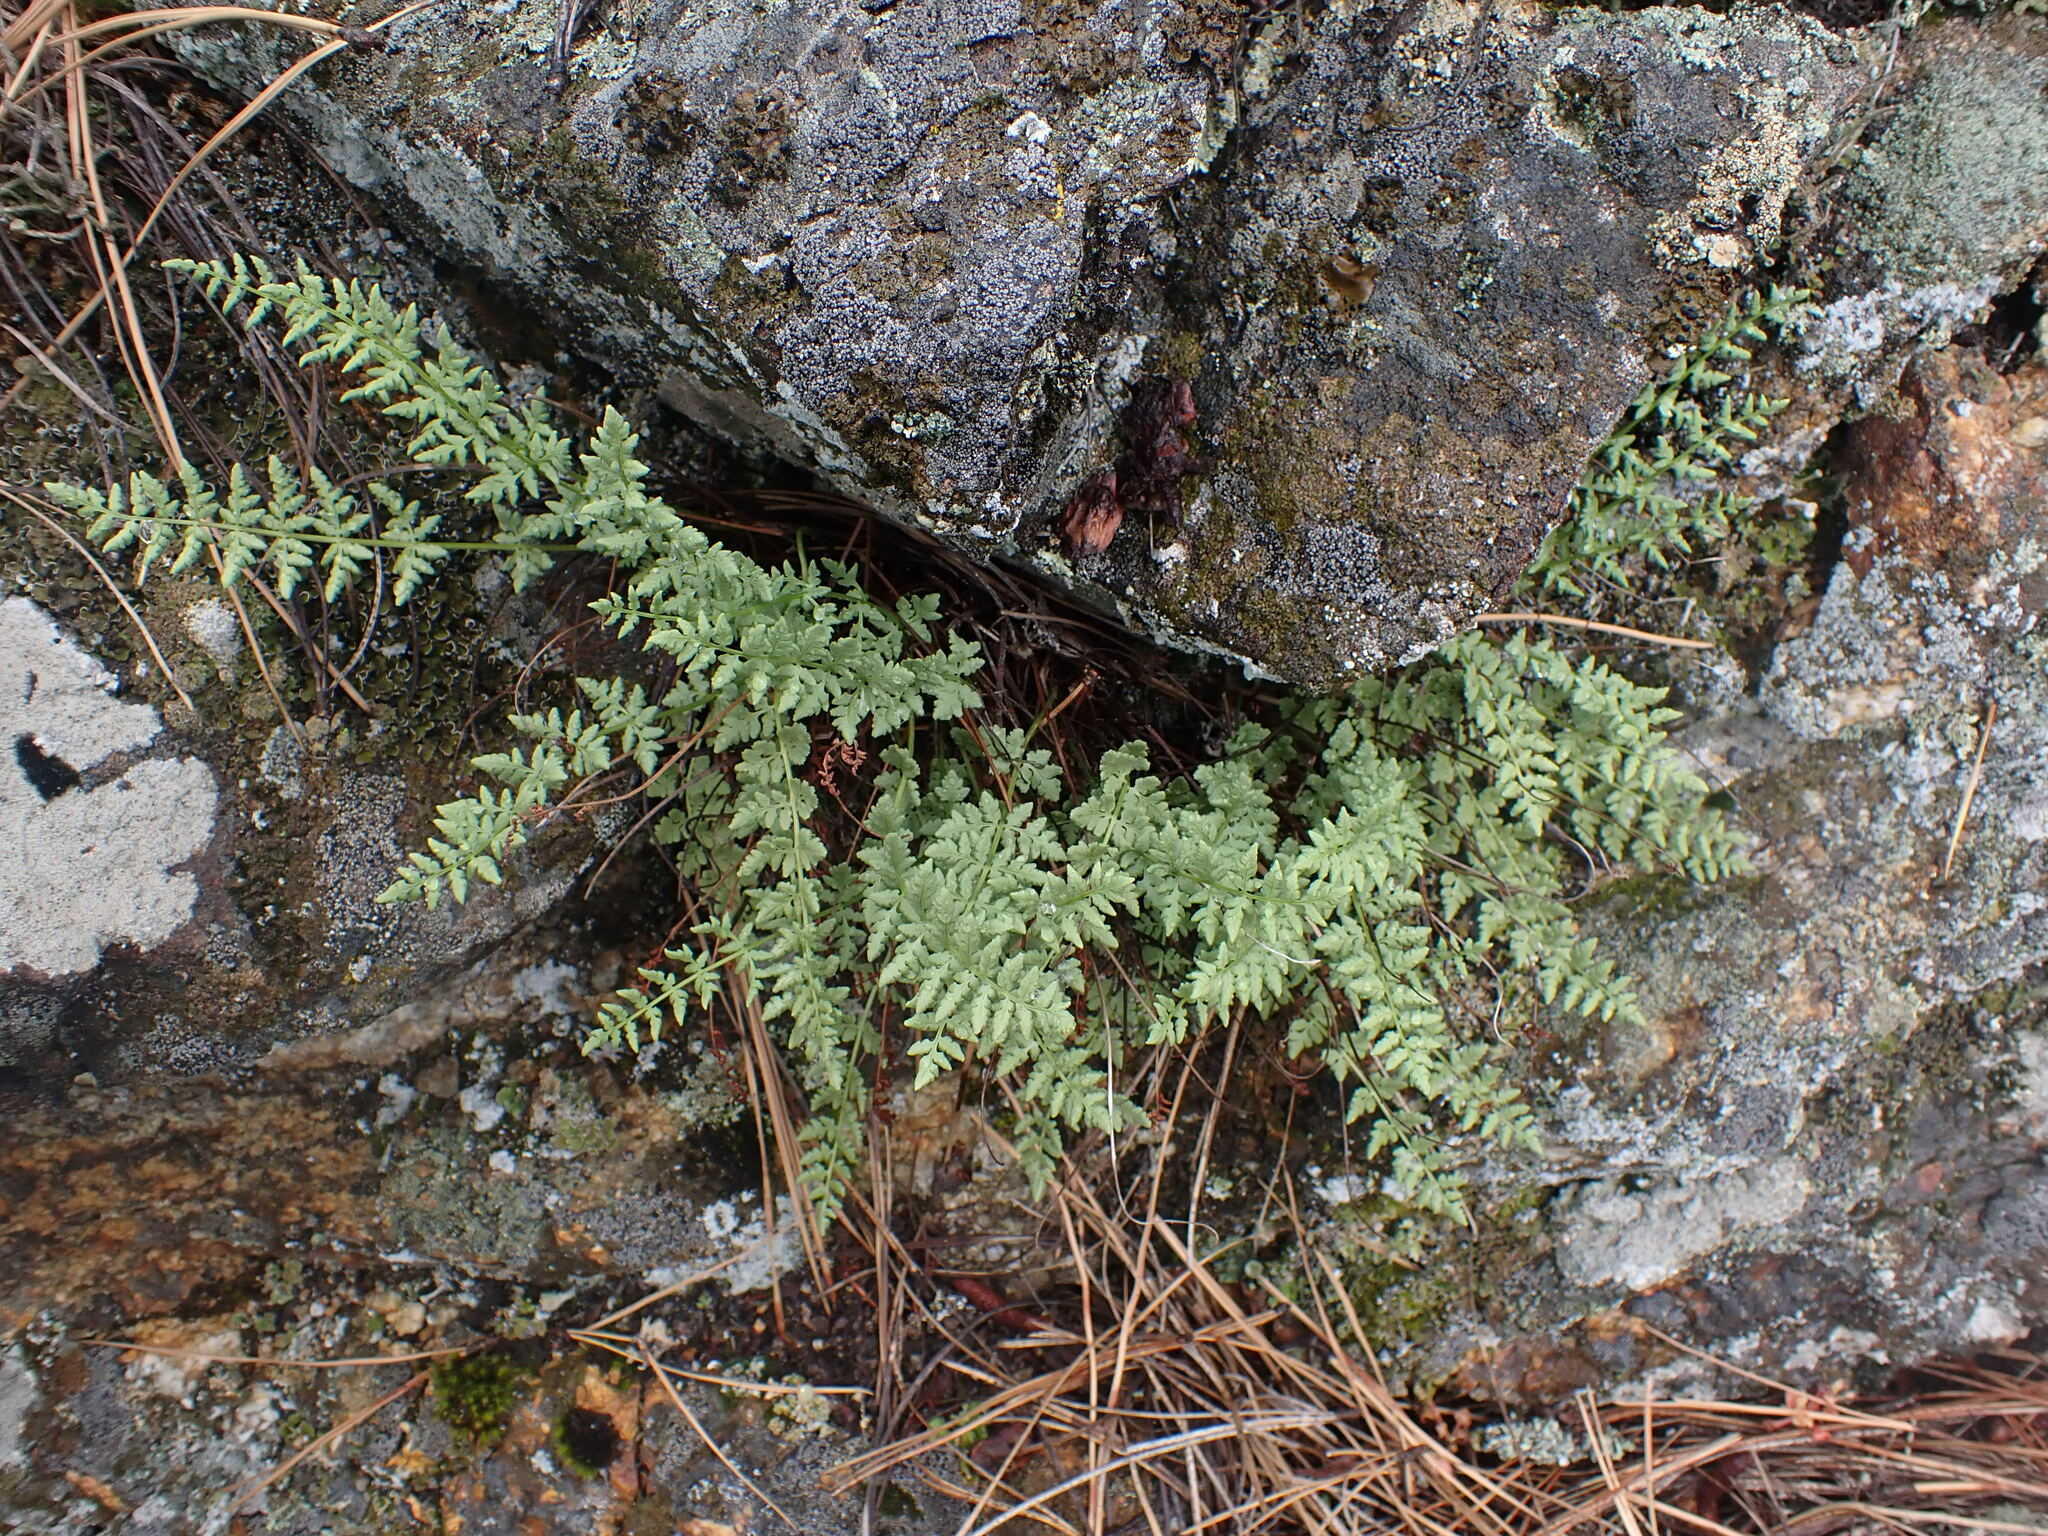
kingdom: Plantae
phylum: Tracheophyta
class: Polypodiopsida
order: Polypodiales
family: Woodsiaceae
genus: Physematium
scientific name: Physematium oreganum
